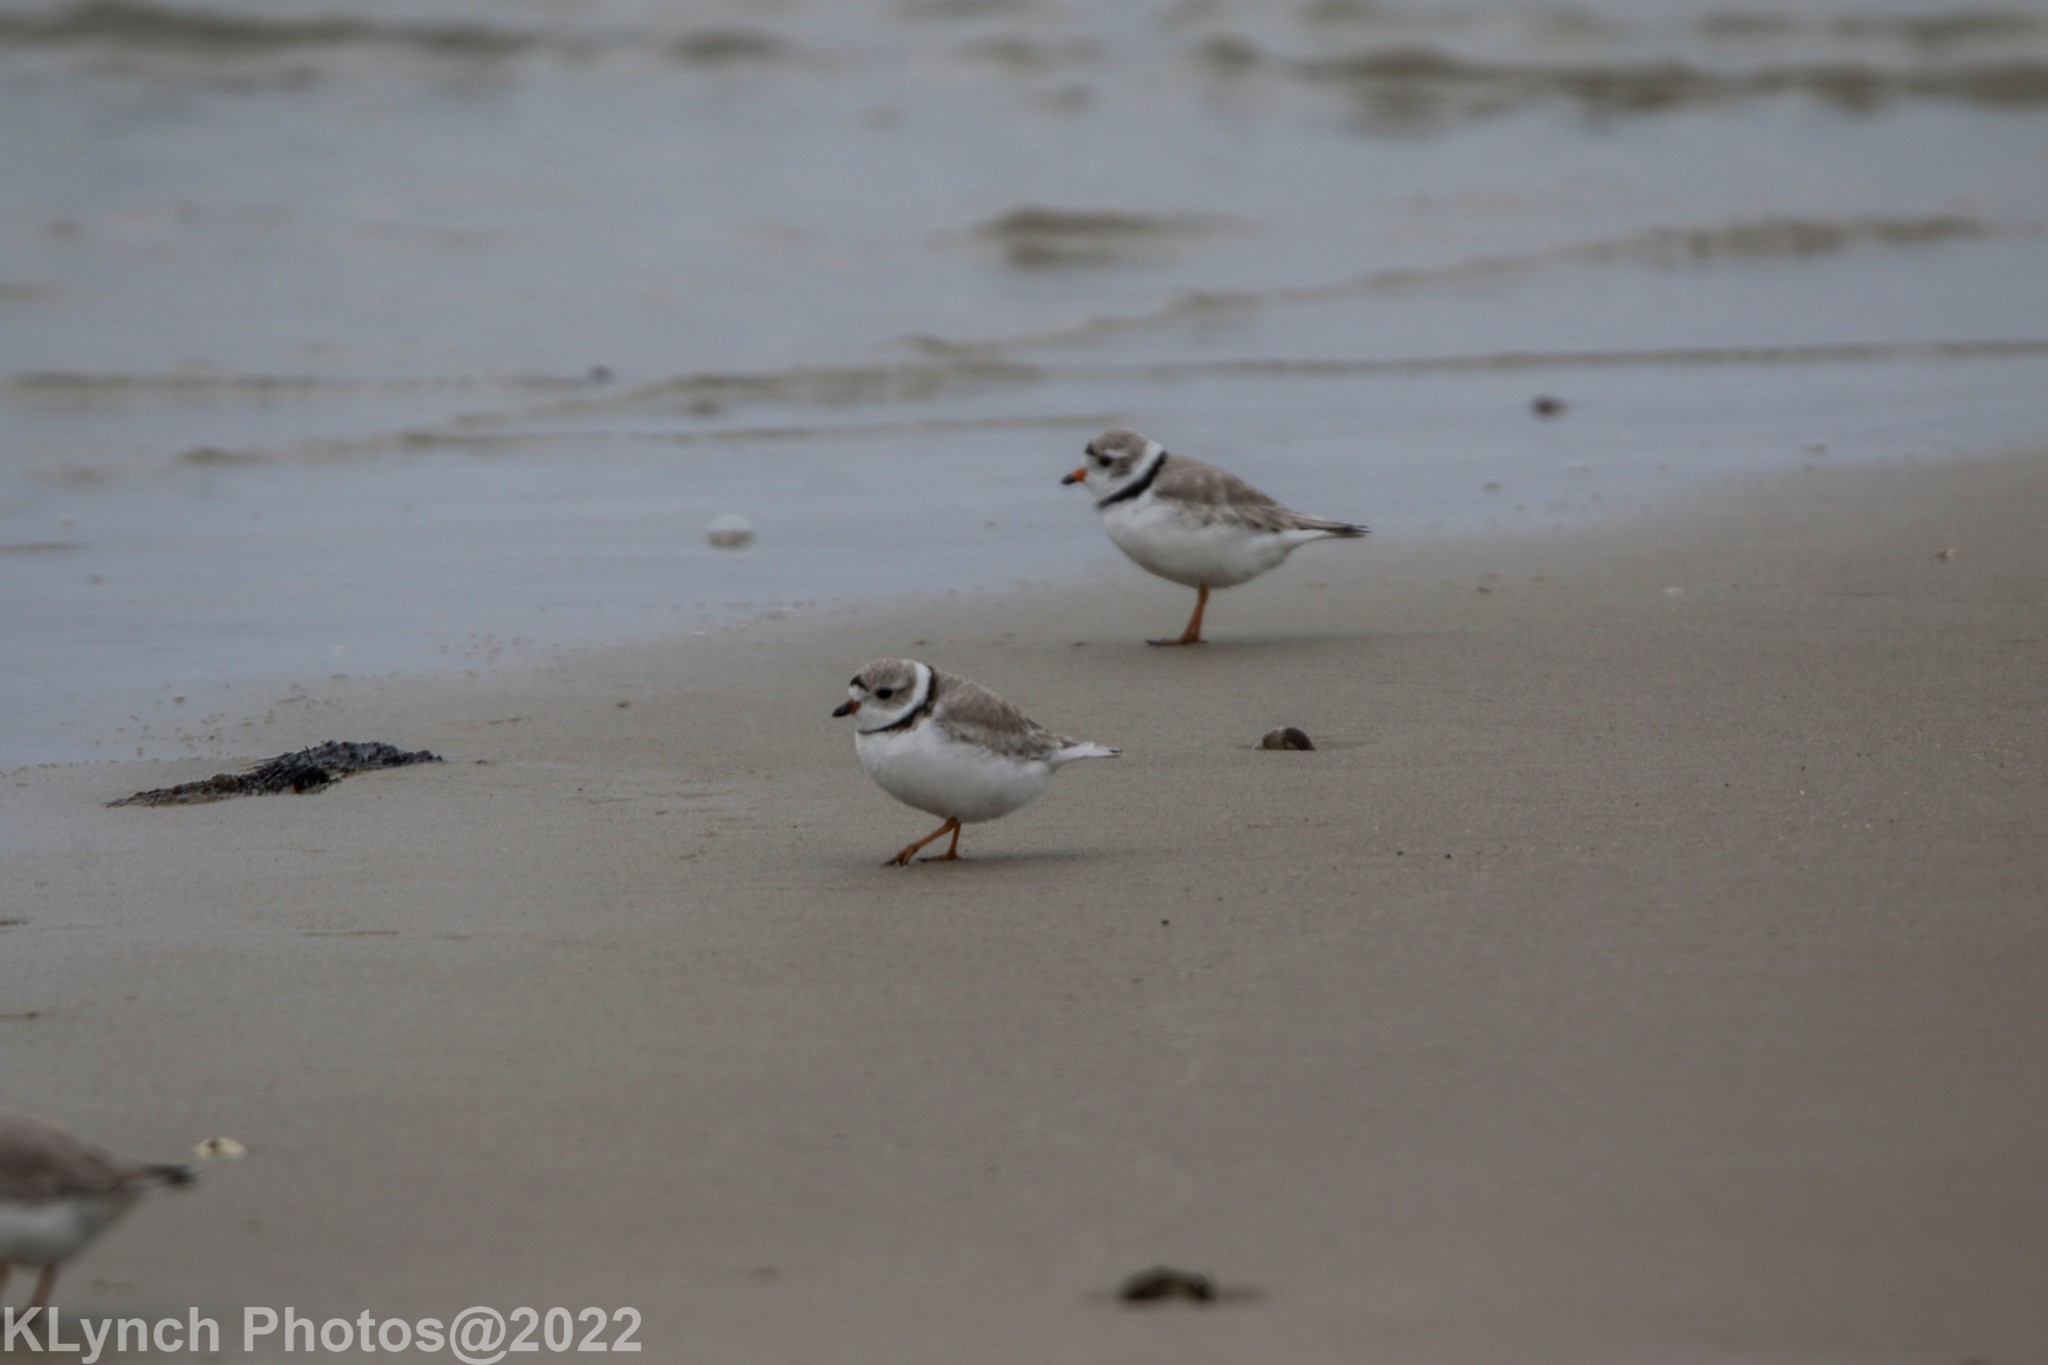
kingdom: Animalia
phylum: Chordata
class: Aves
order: Charadriiformes
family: Charadriidae
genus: Charadrius
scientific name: Charadrius melodus
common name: Piping plover
